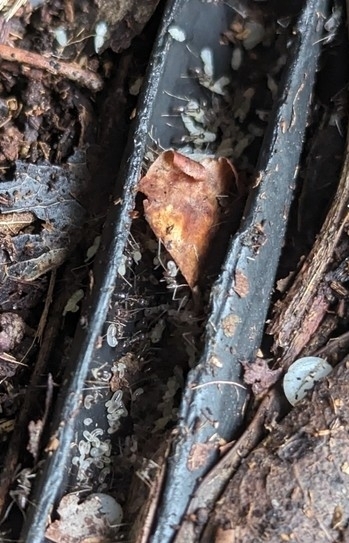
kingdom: Animalia
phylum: Arthropoda
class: Insecta
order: Hymenoptera
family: Formicidae
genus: Camponotus
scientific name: Camponotus floridanus
